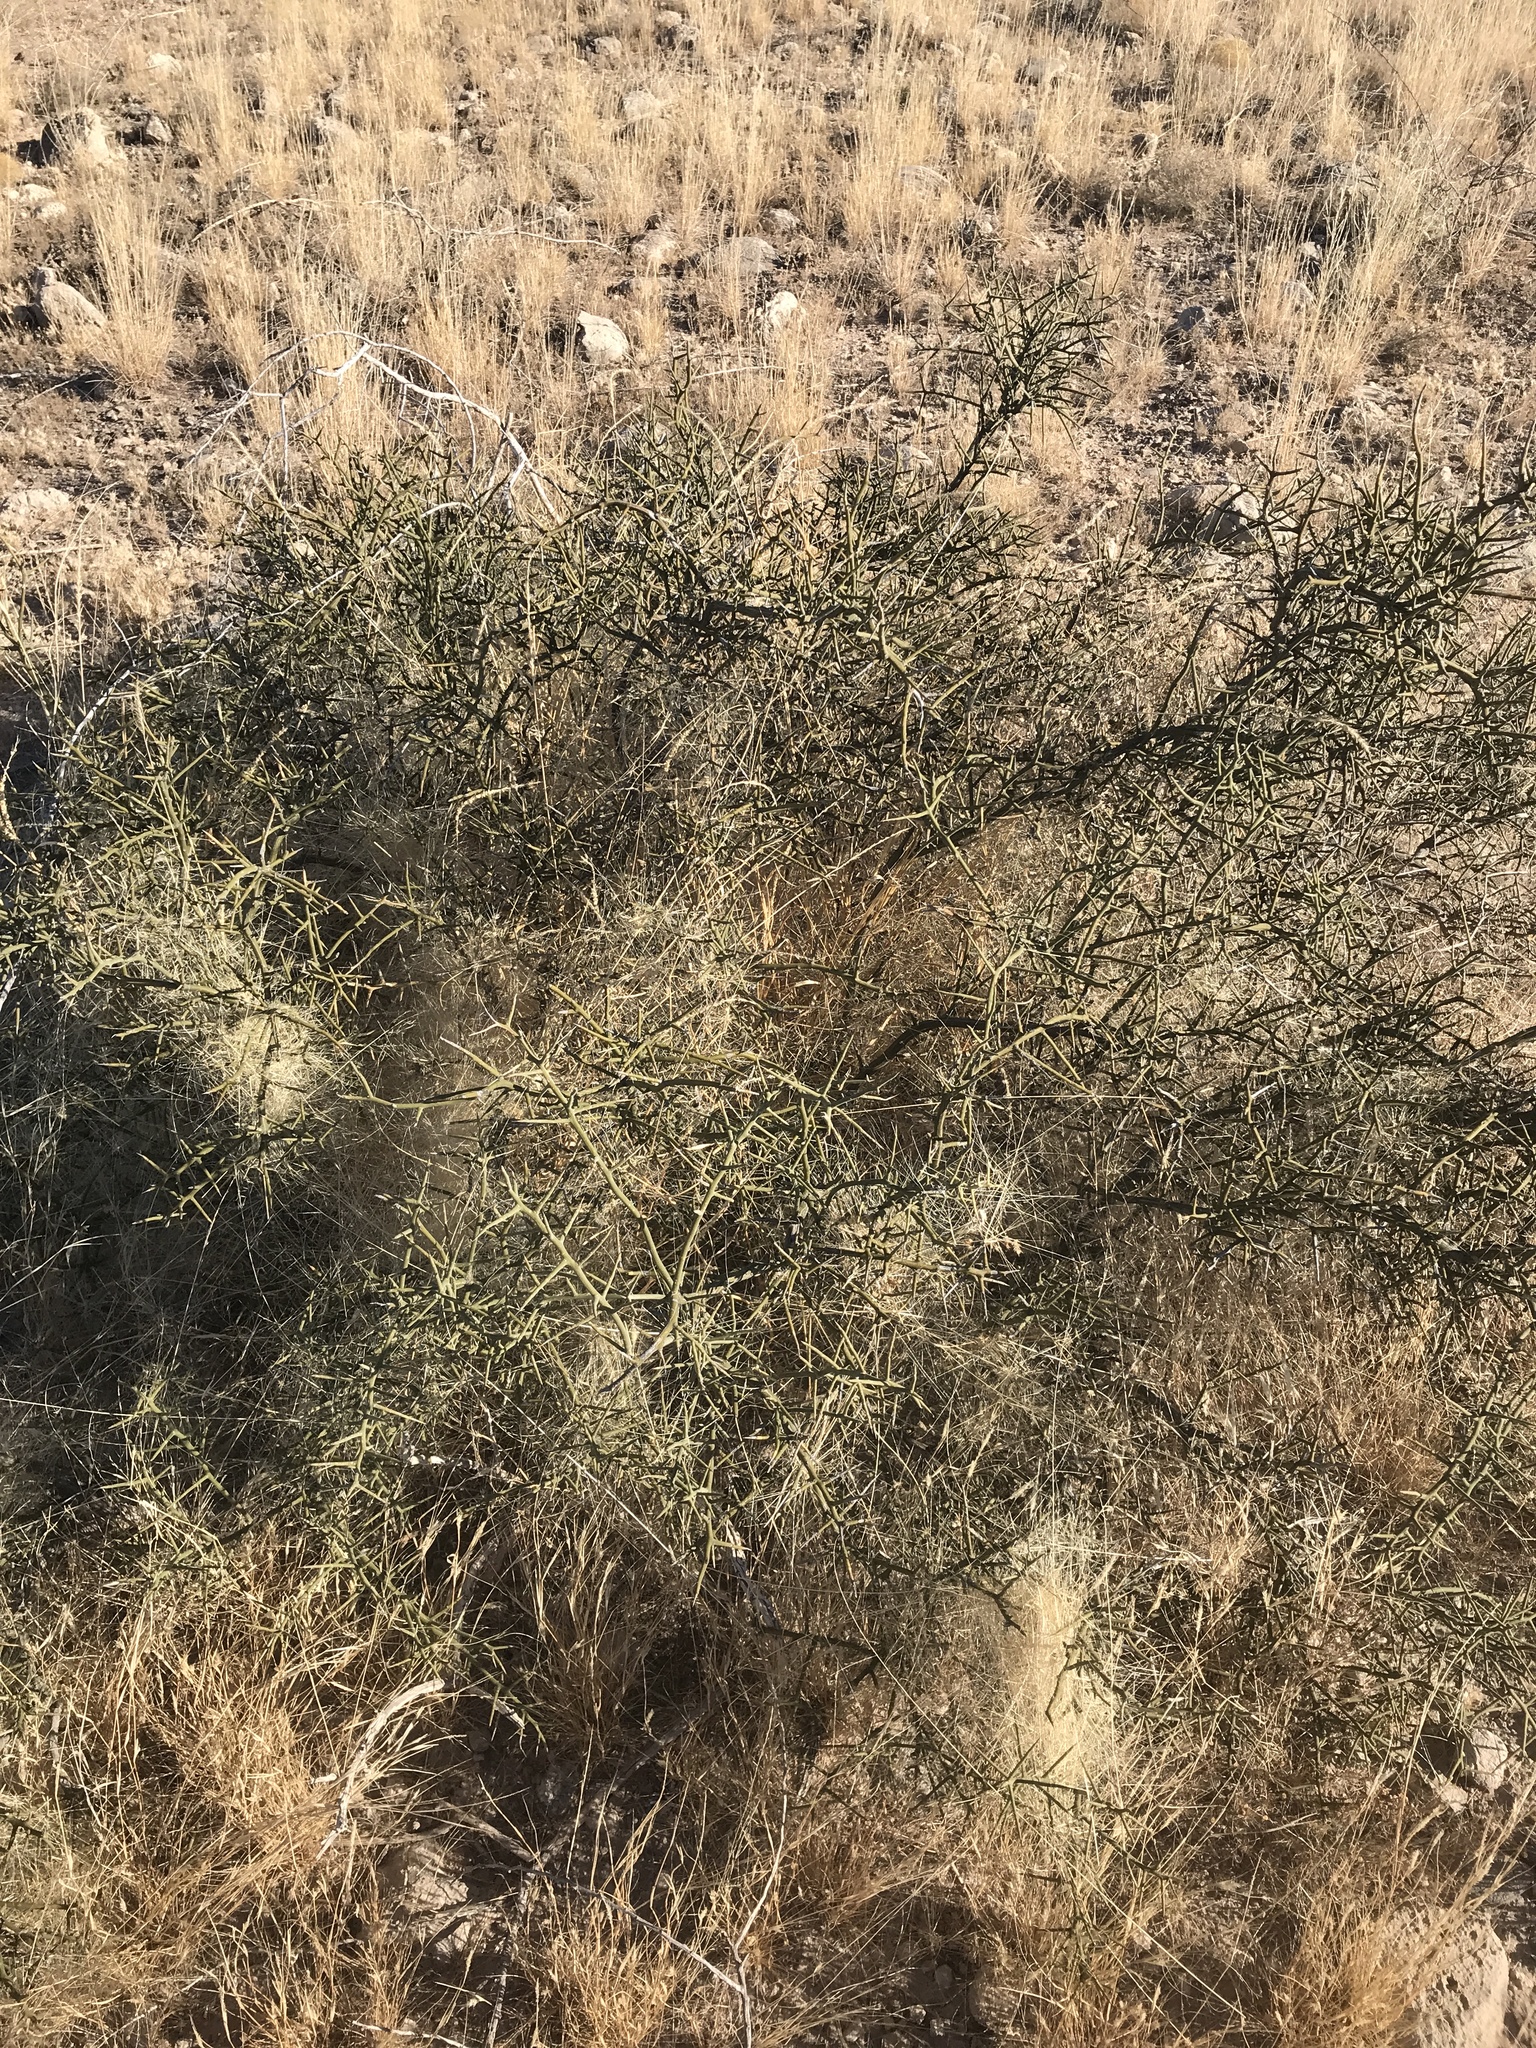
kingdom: Plantae
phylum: Tracheophyta
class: Magnoliopsida
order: Brassicales
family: Koeberliniaceae
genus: Koeberlinia
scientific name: Koeberlinia spinosa
